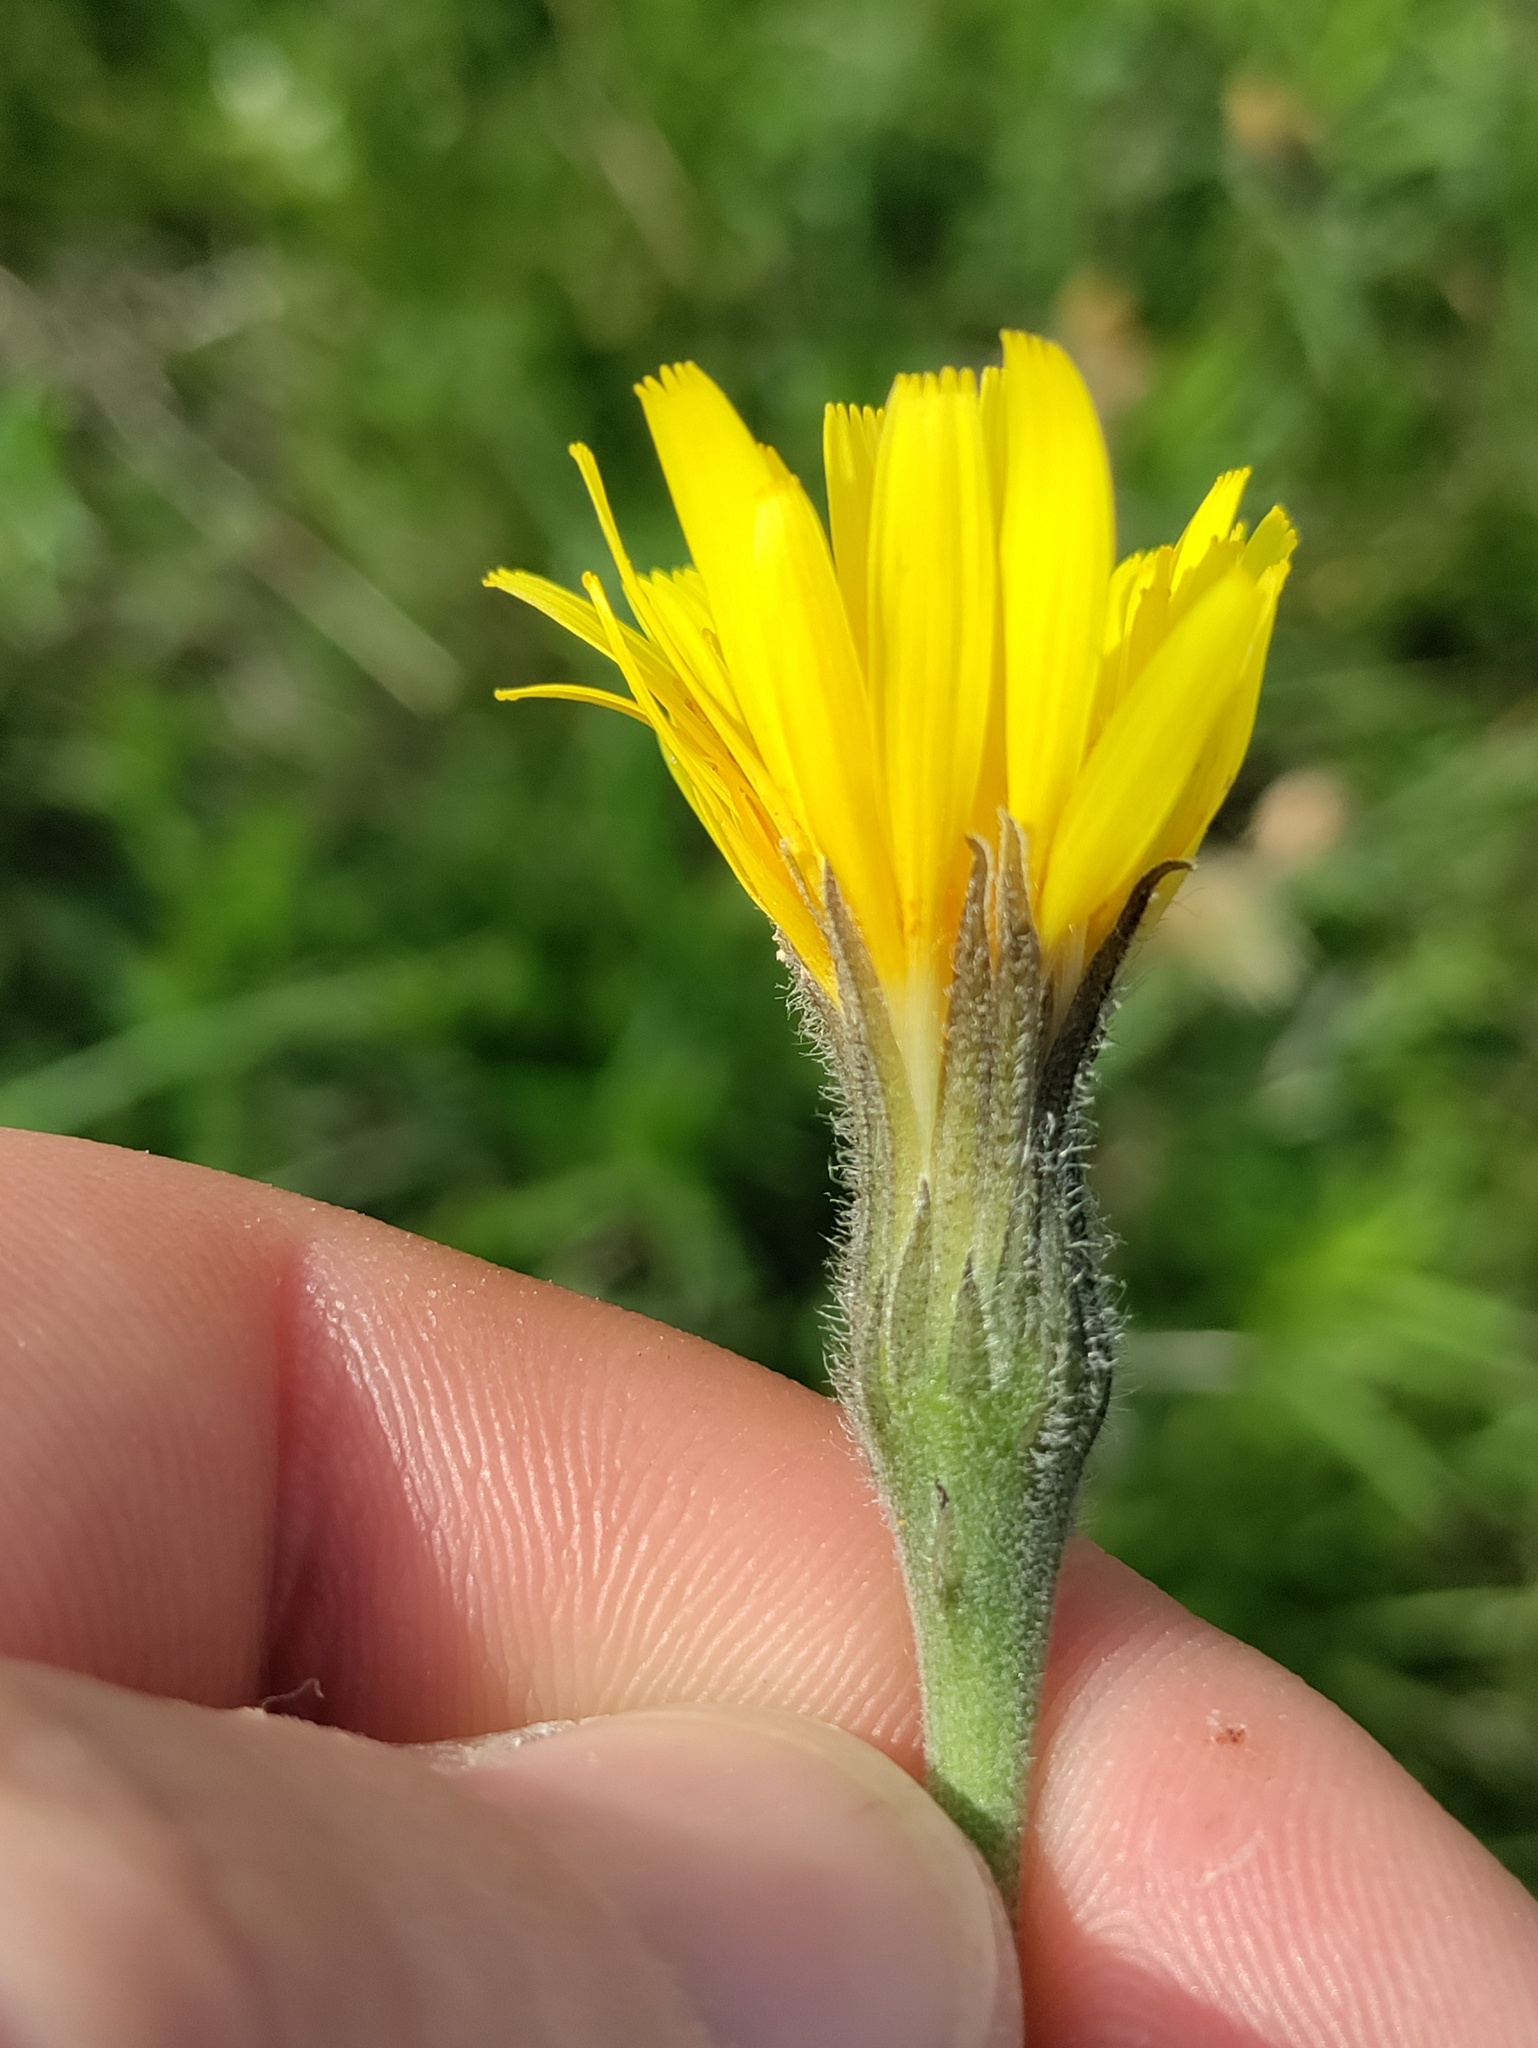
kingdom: Plantae
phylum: Tracheophyta
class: Magnoliopsida
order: Asterales
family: Asteraceae
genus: Leontodon
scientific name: Leontodon incanus
